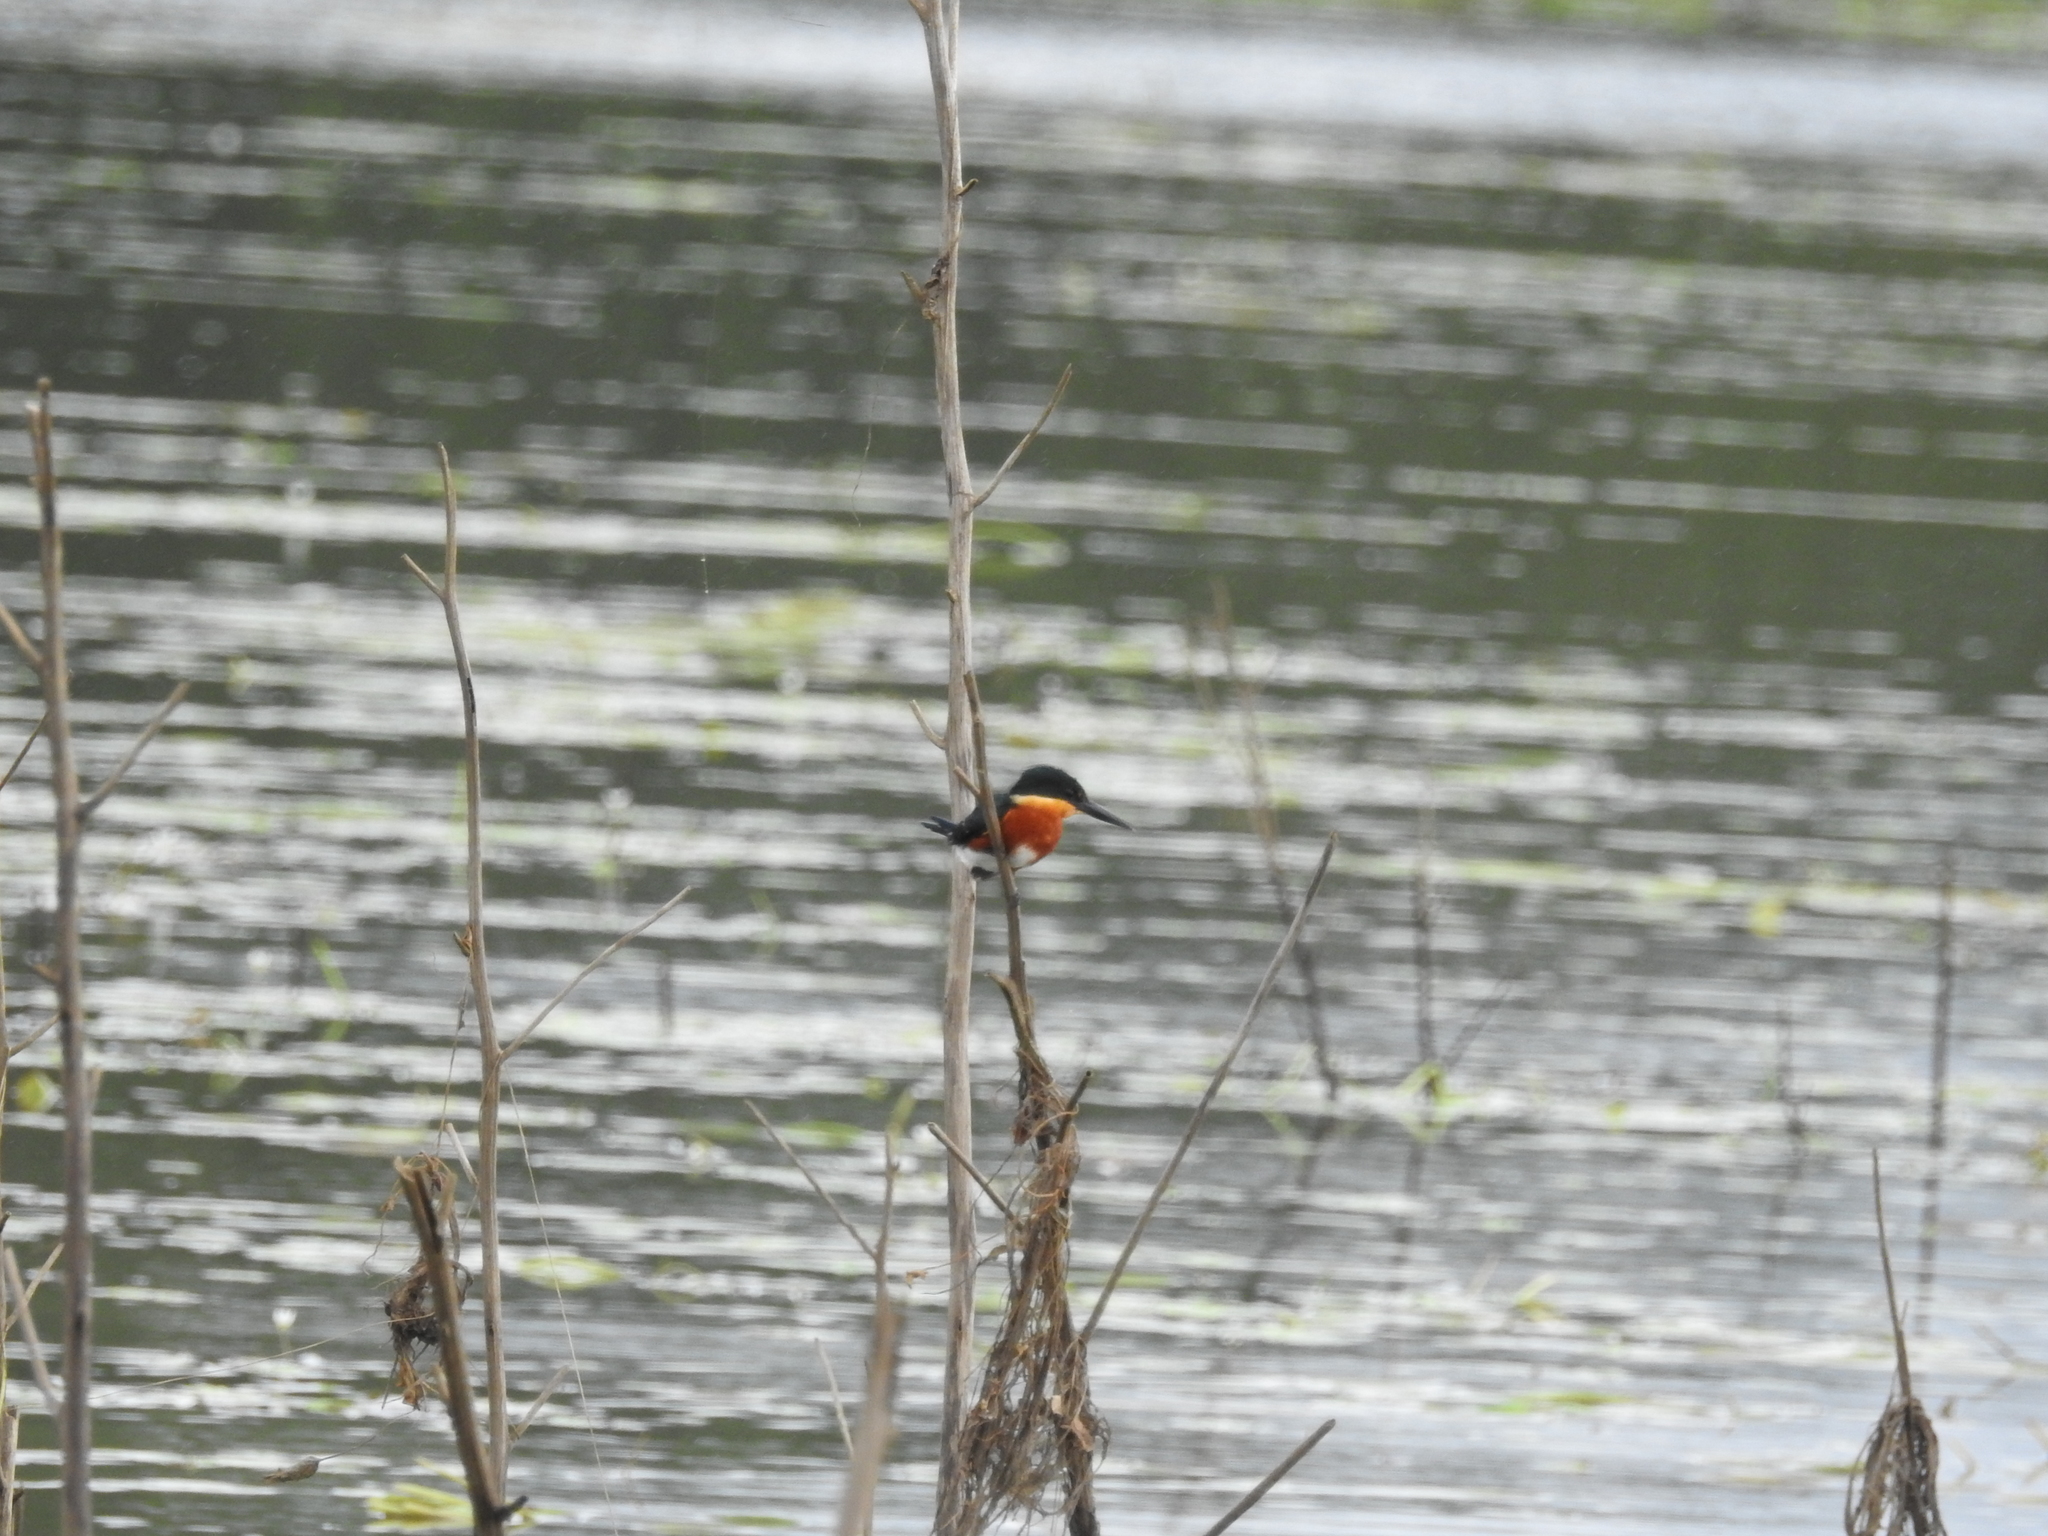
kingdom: Animalia
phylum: Chordata
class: Aves
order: Coraciiformes
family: Alcedinidae
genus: Chloroceryle
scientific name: Chloroceryle aenea
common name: American pygmy kingfisher
